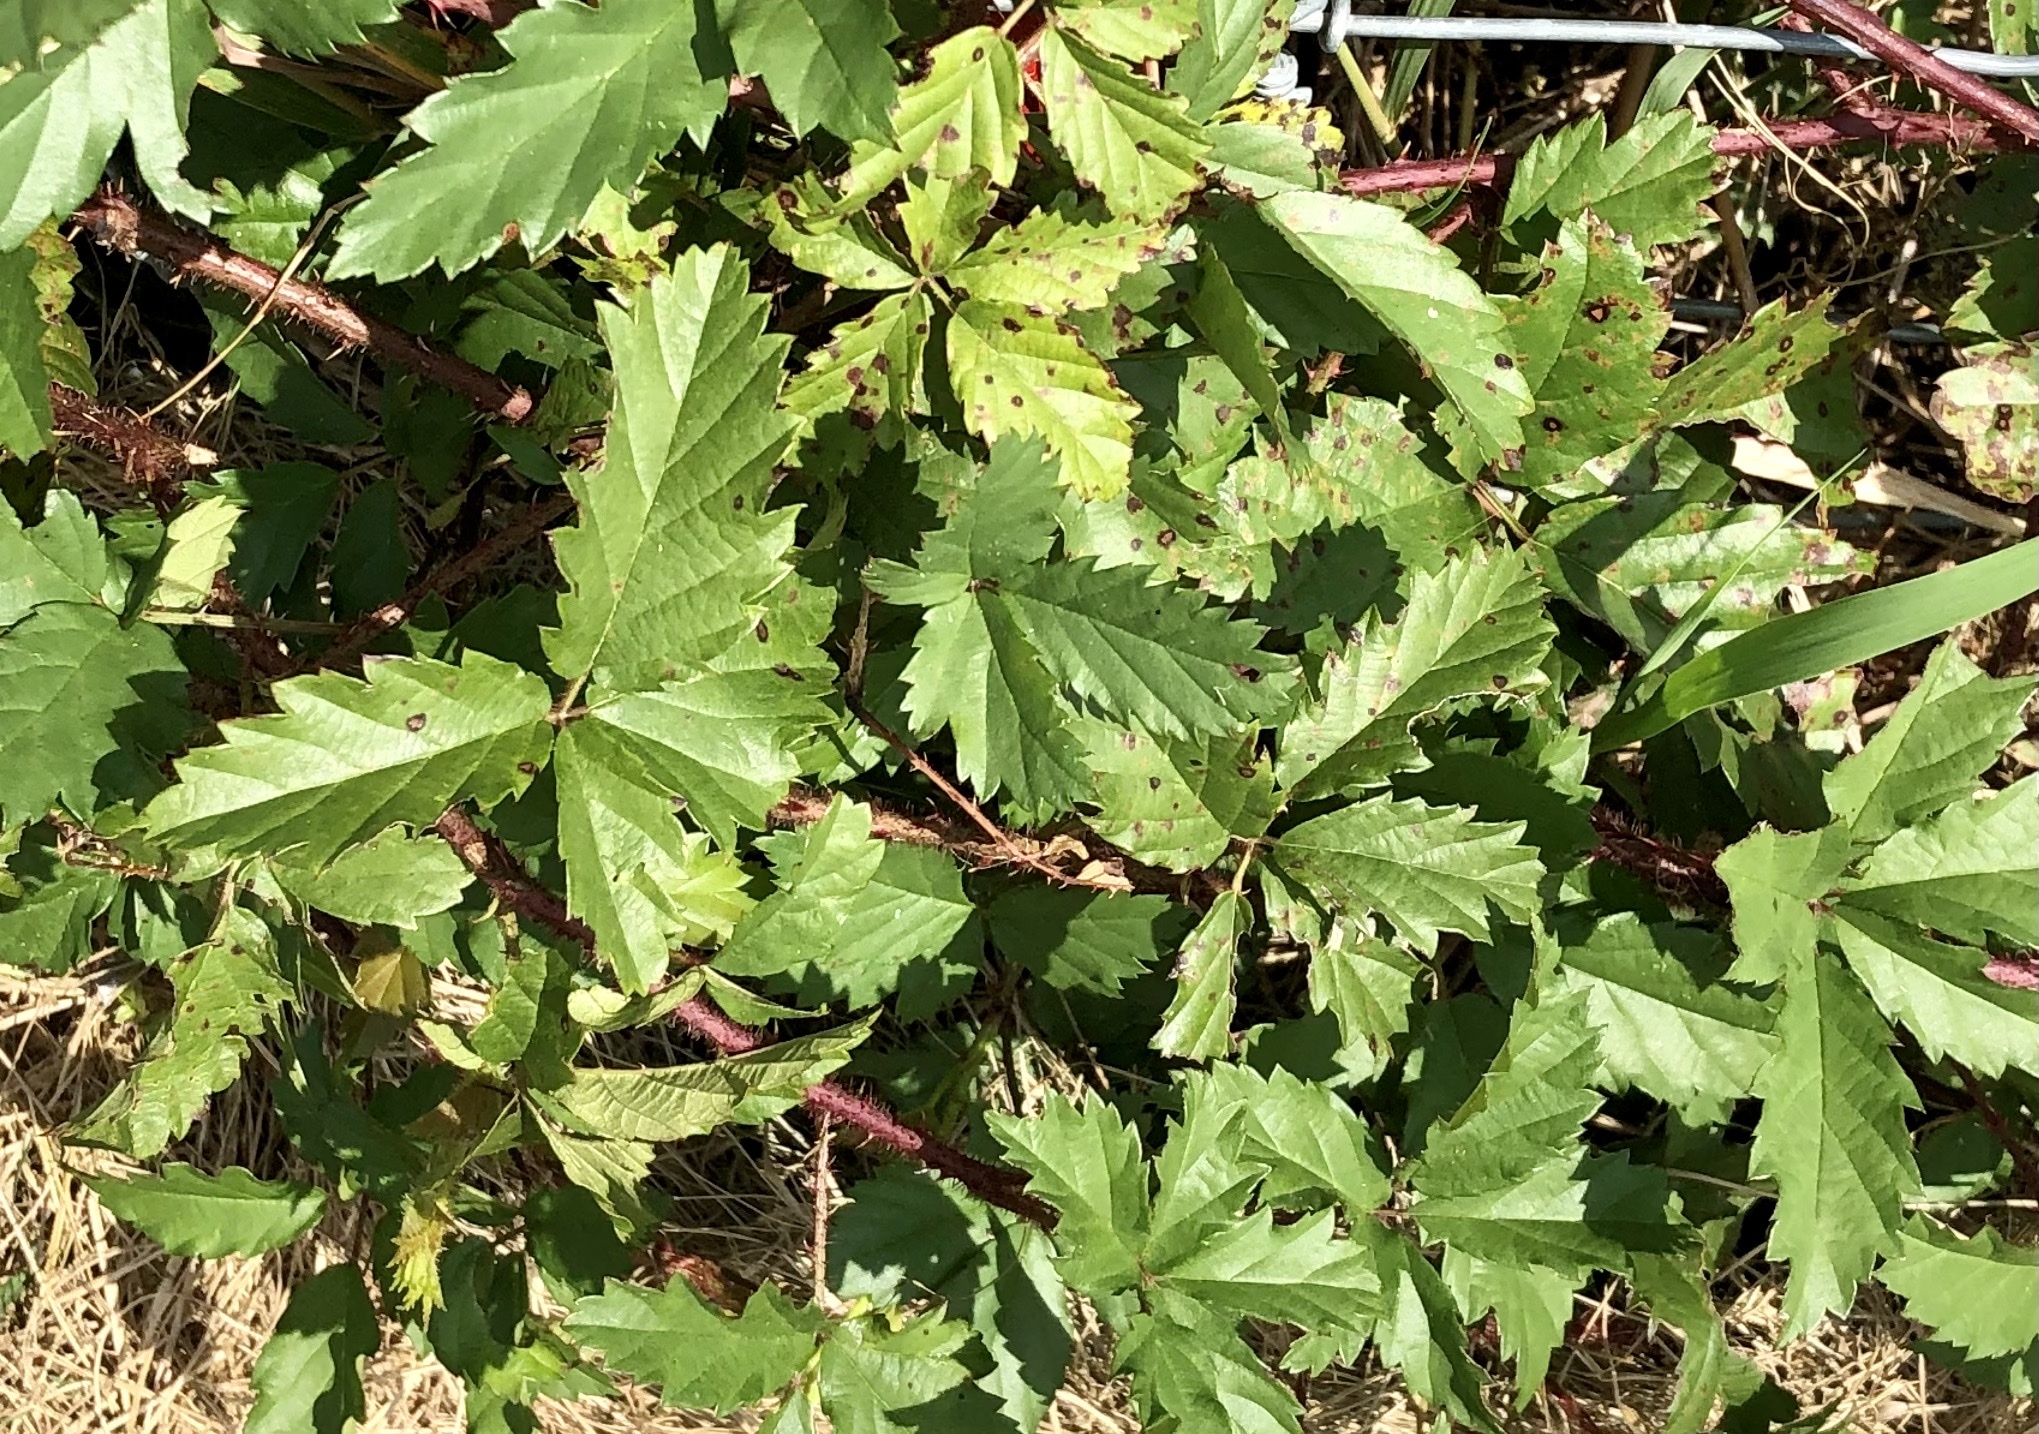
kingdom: Plantae
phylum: Tracheophyta
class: Magnoliopsida
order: Rosales
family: Rosaceae
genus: Rubus
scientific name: Rubus trivialis
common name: Southern dewberry
